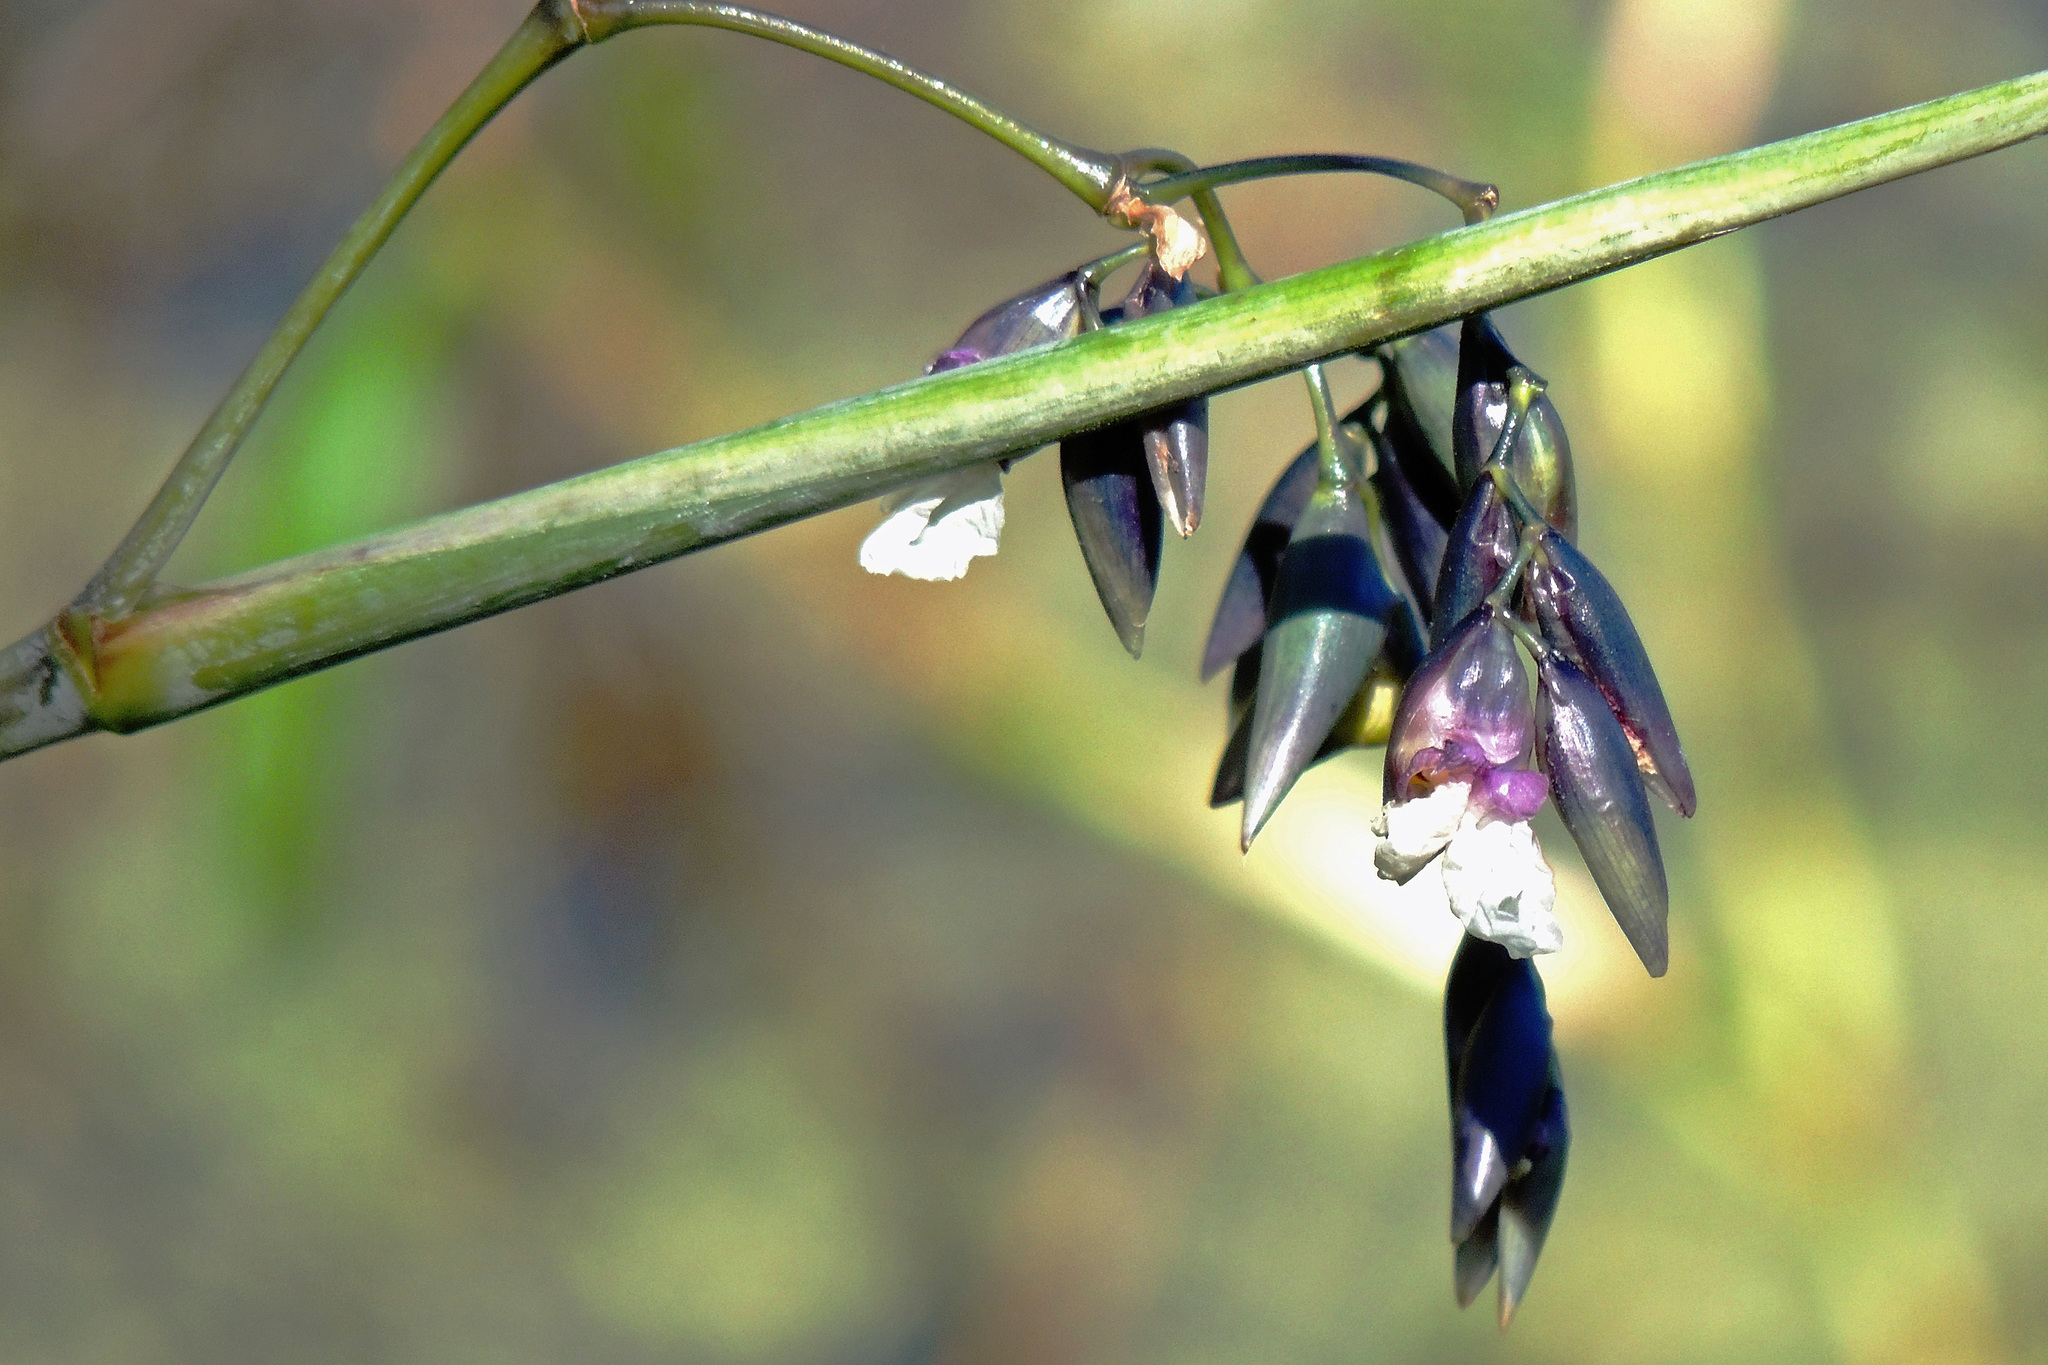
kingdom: Plantae
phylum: Tracheophyta
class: Liliopsida
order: Zingiberales
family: Marantaceae
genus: Thalia
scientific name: Thalia geniculata
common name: Arrowroot
